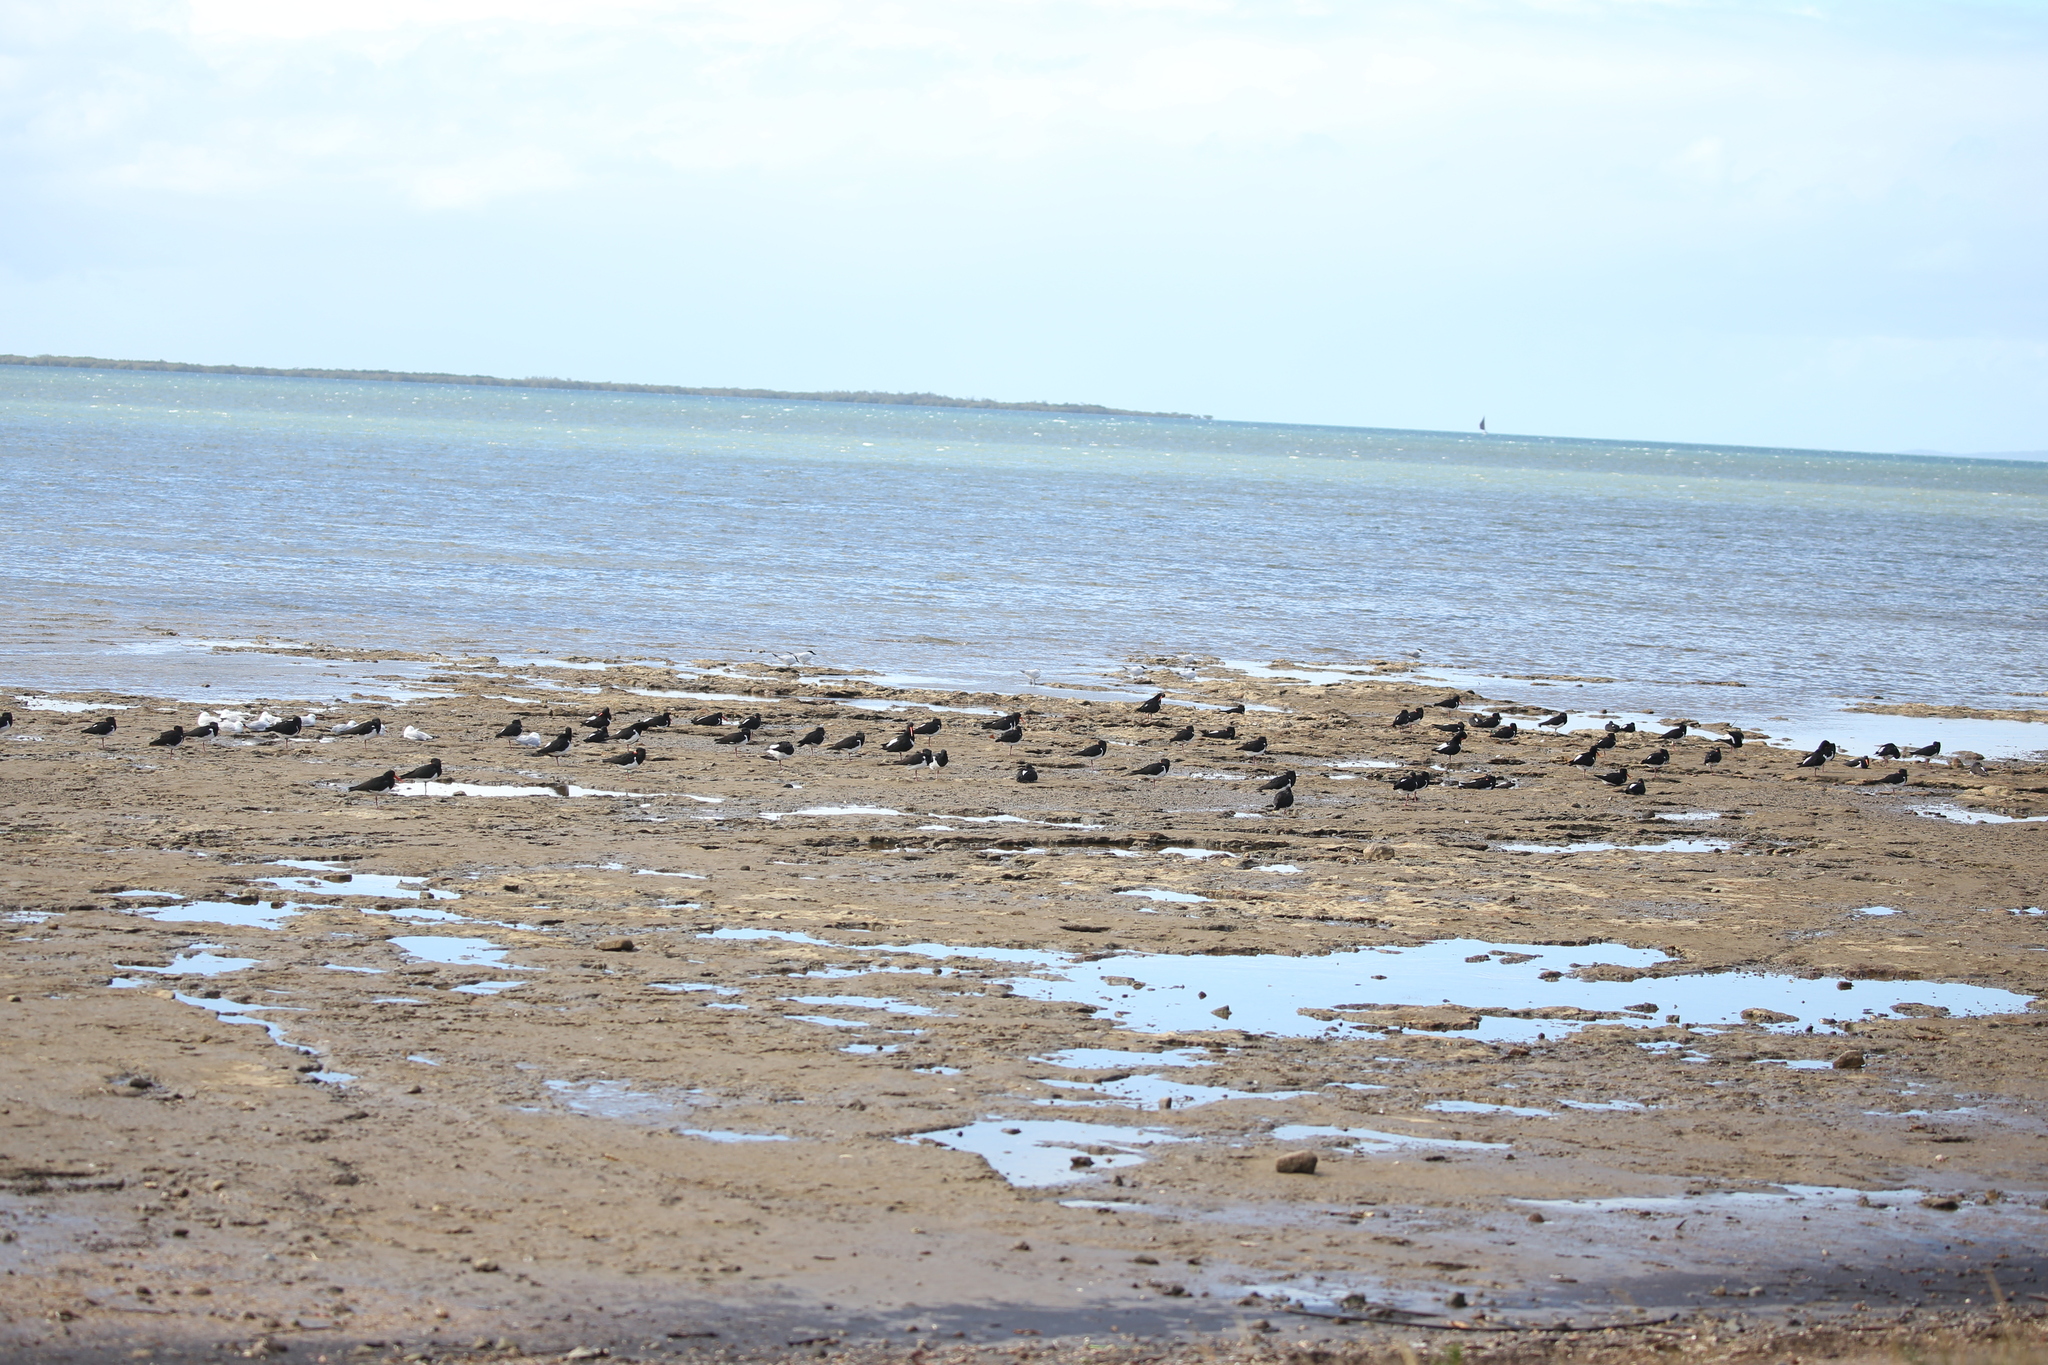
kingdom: Animalia
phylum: Chordata
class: Aves
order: Charadriiformes
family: Haematopodidae
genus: Haematopus
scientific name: Haematopus longirostris
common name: Pied oystercatcher
